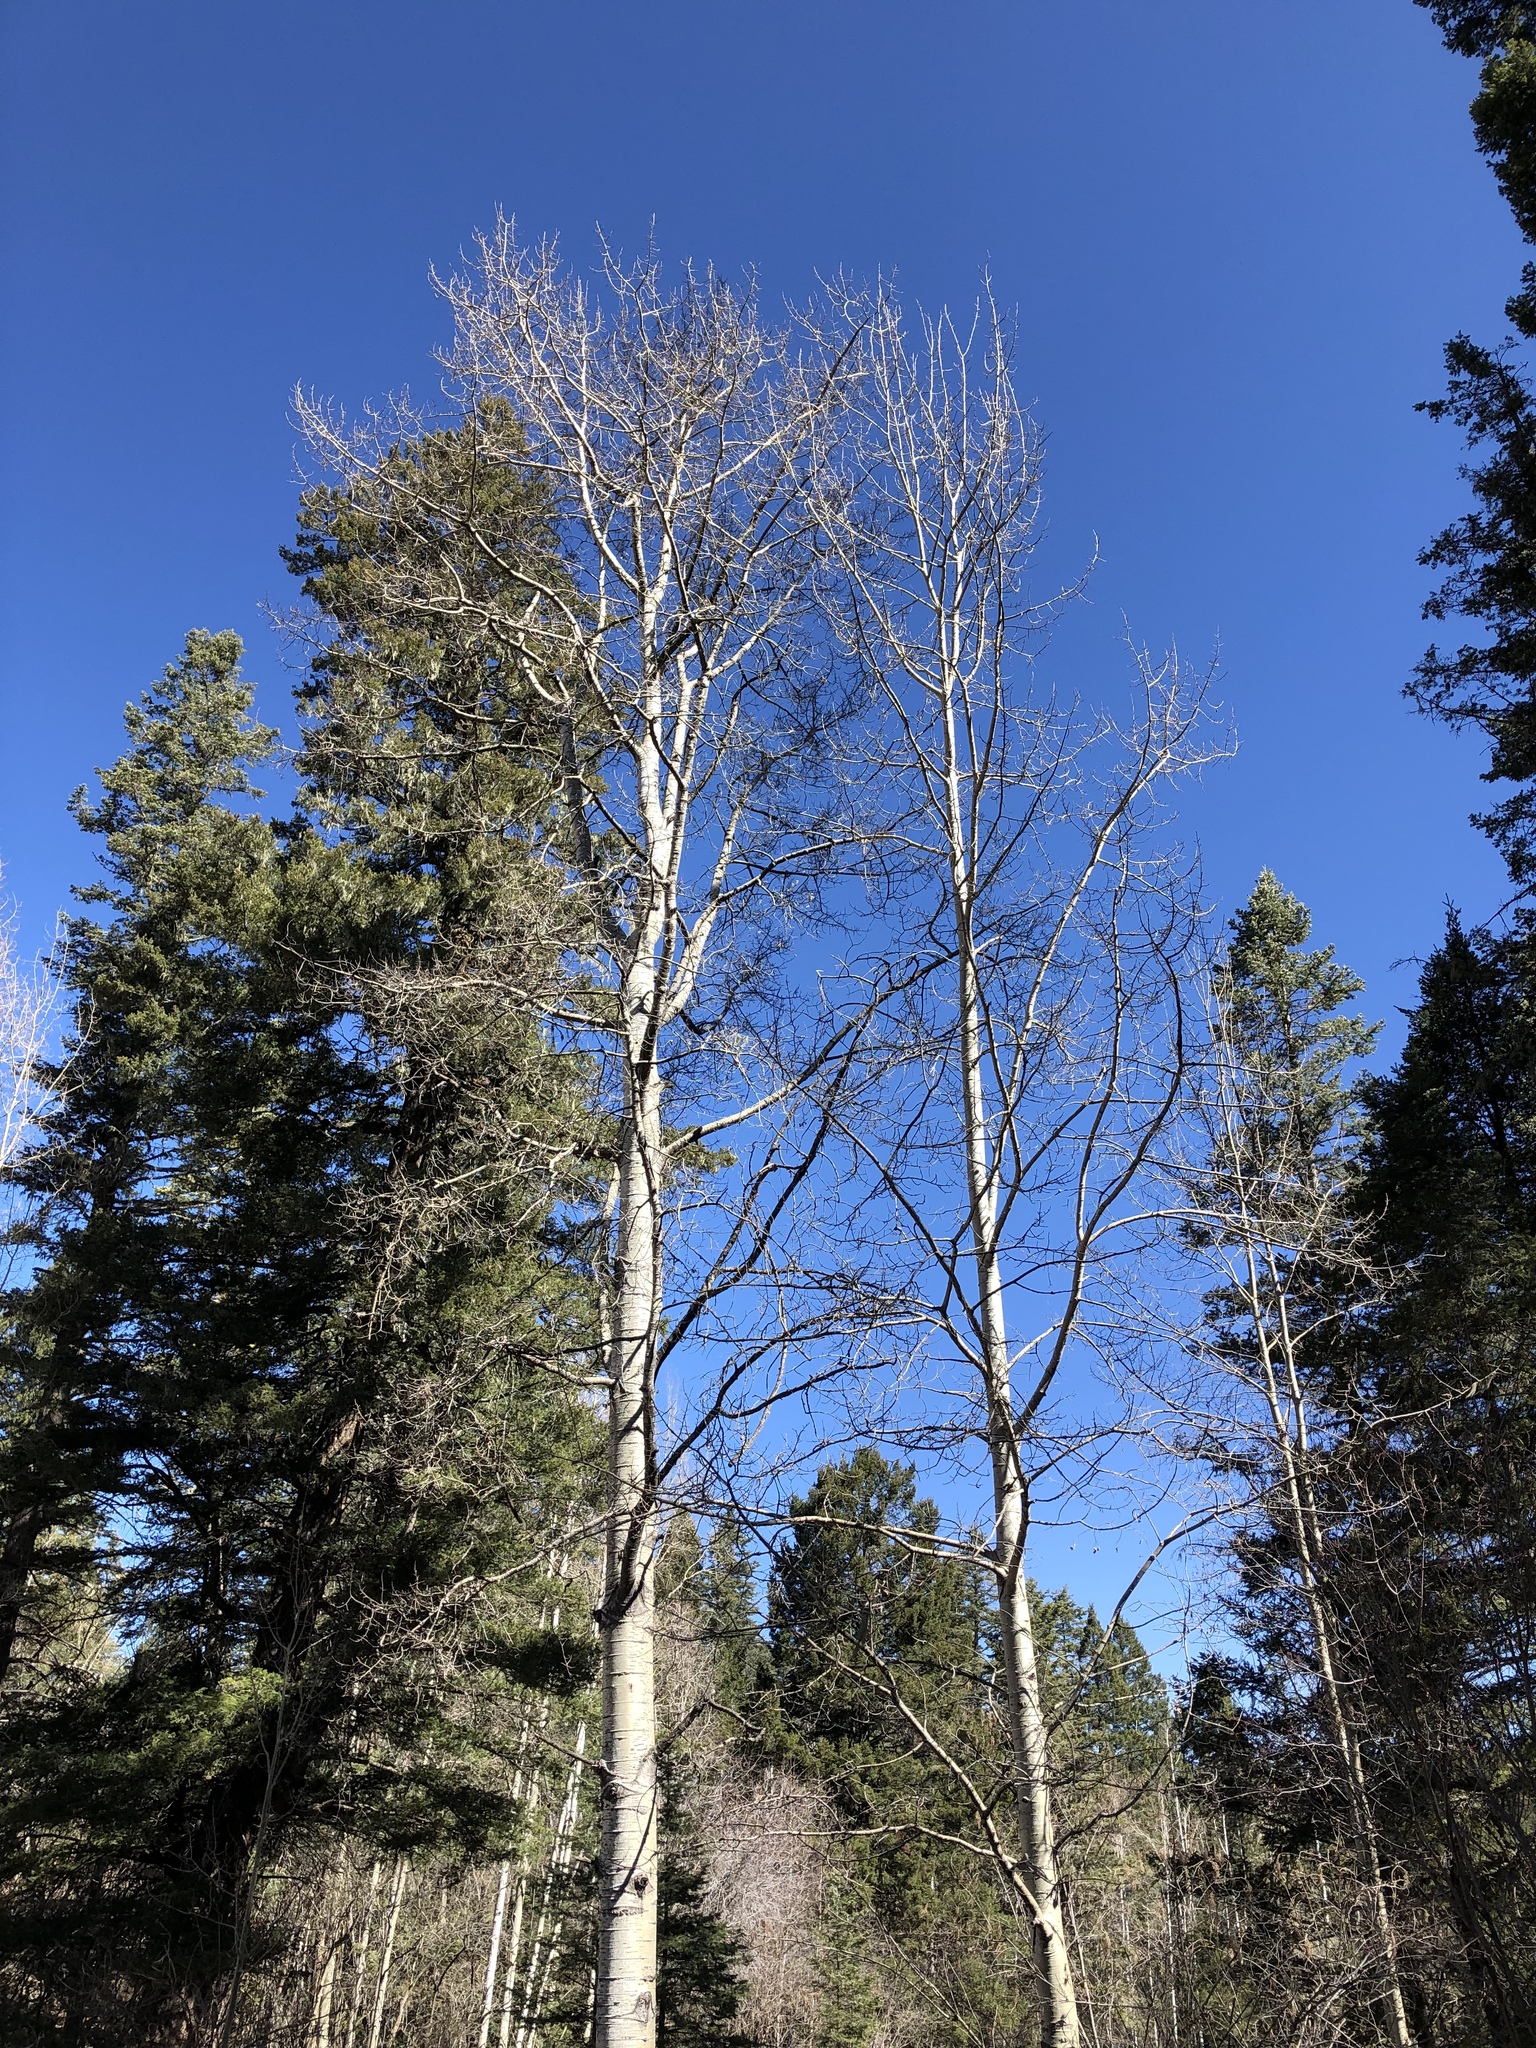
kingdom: Plantae
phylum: Tracheophyta
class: Magnoliopsida
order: Malpighiales
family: Salicaceae
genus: Populus
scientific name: Populus tremuloides
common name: Quaking aspen
